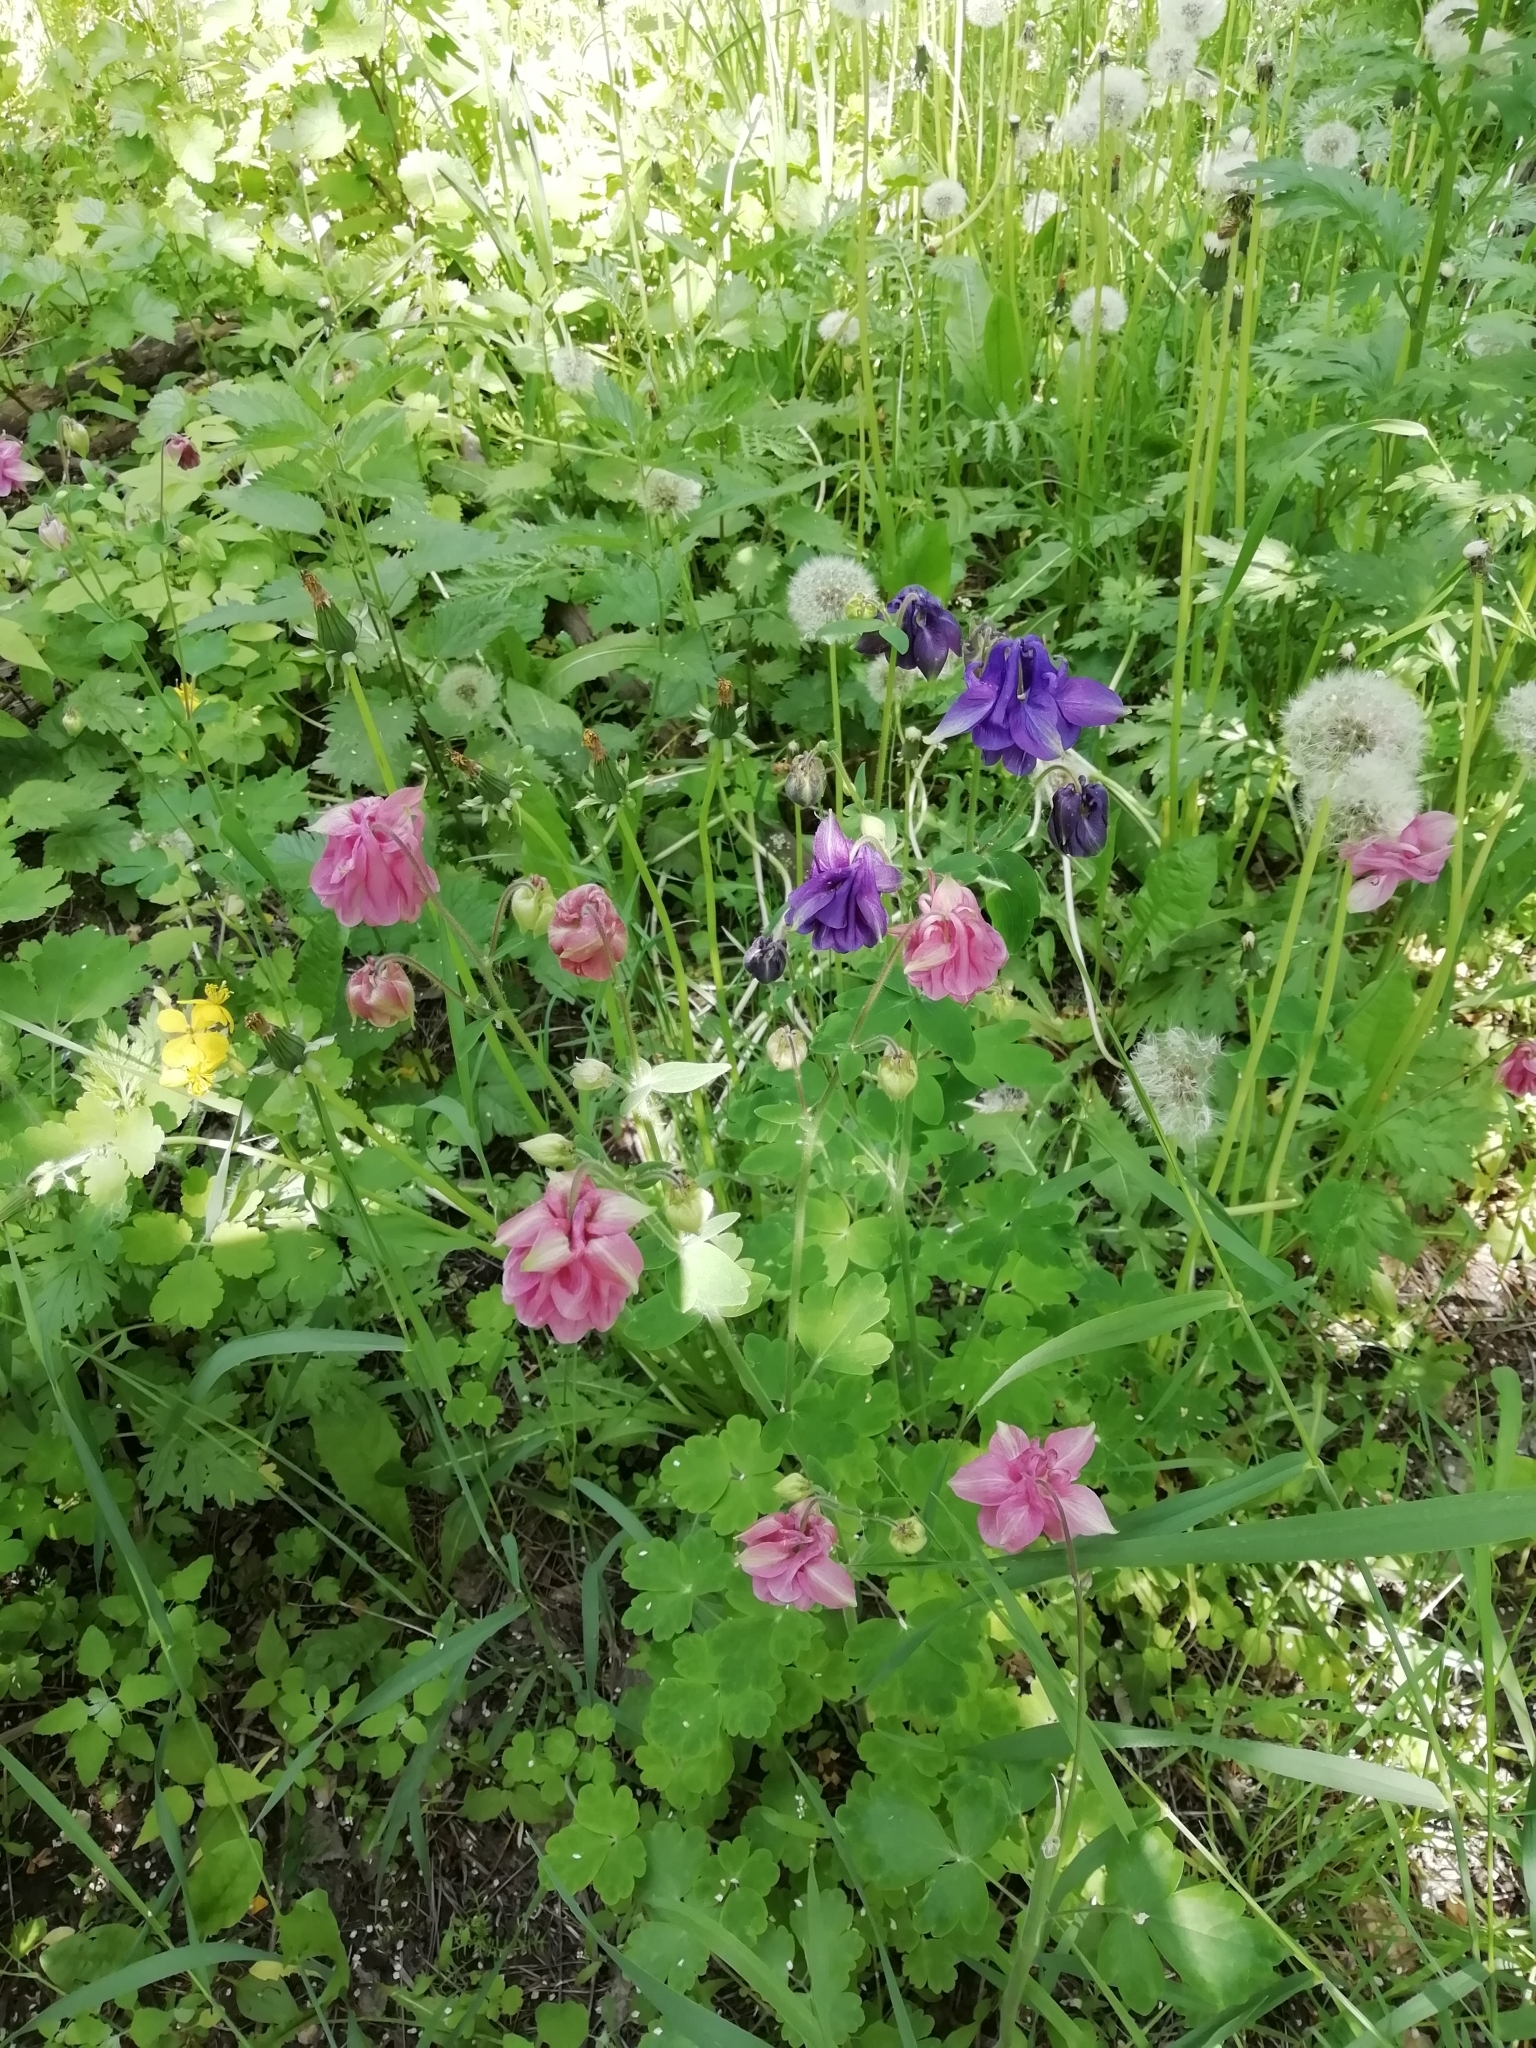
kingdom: Plantae
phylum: Tracheophyta
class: Magnoliopsida
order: Ranunculales
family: Ranunculaceae
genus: Aquilegia
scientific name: Aquilegia vulgaris
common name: Columbine
